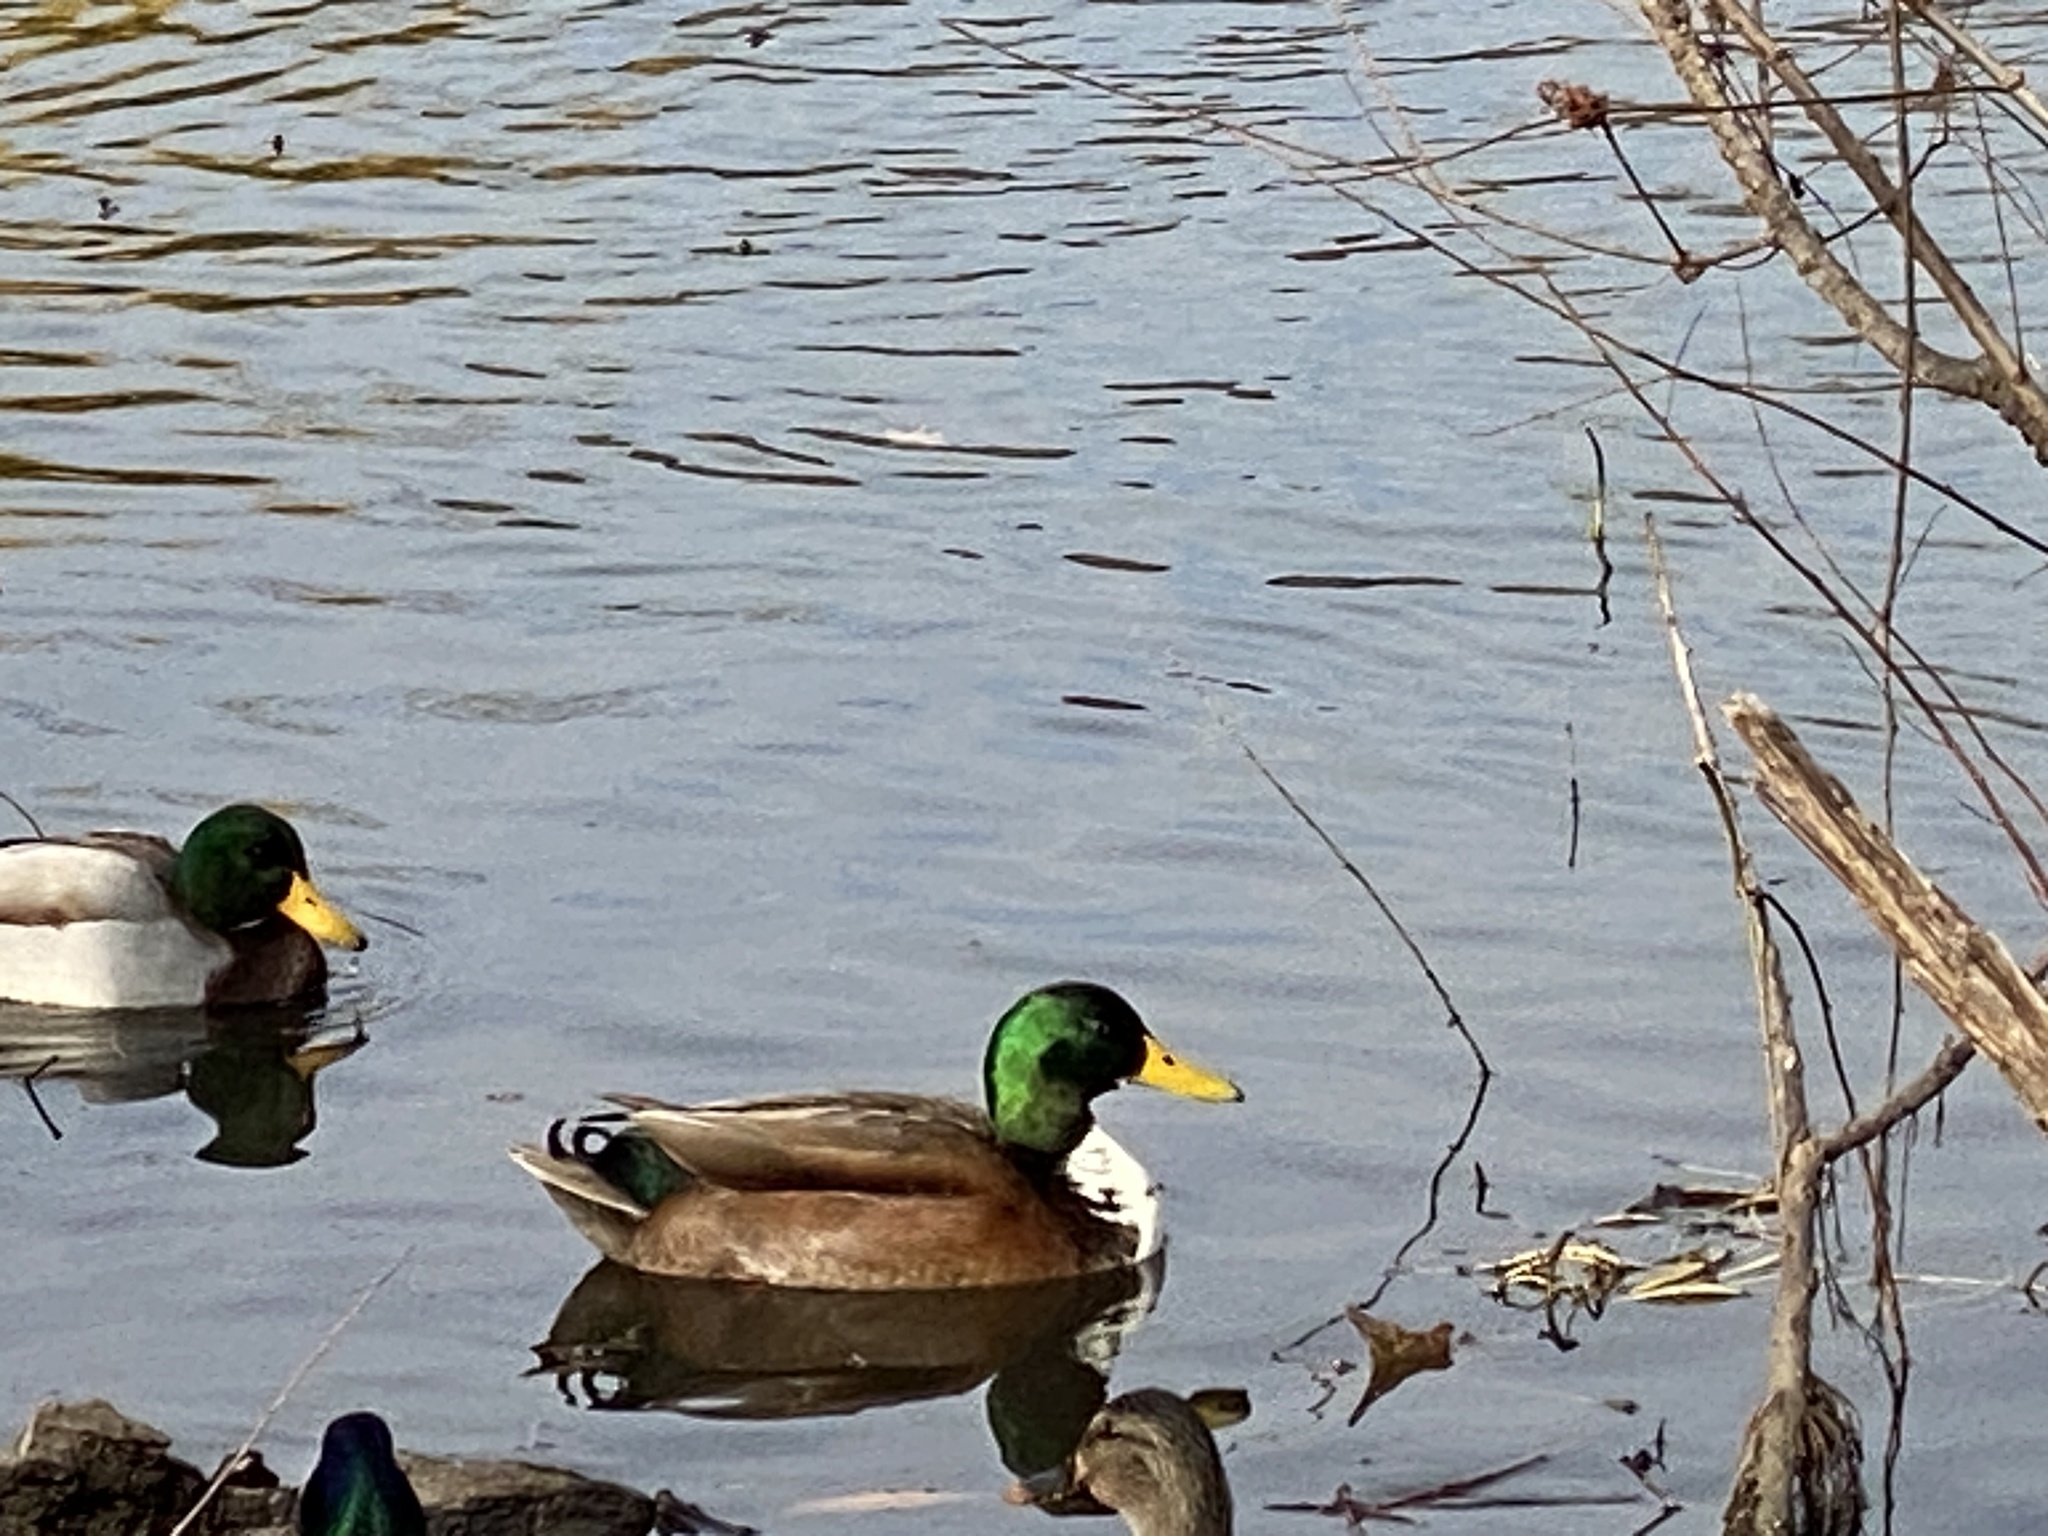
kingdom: Animalia
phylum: Chordata
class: Aves
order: Anseriformes
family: Anatidae
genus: Anas
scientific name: Anas platyrhynchos
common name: Mallard
